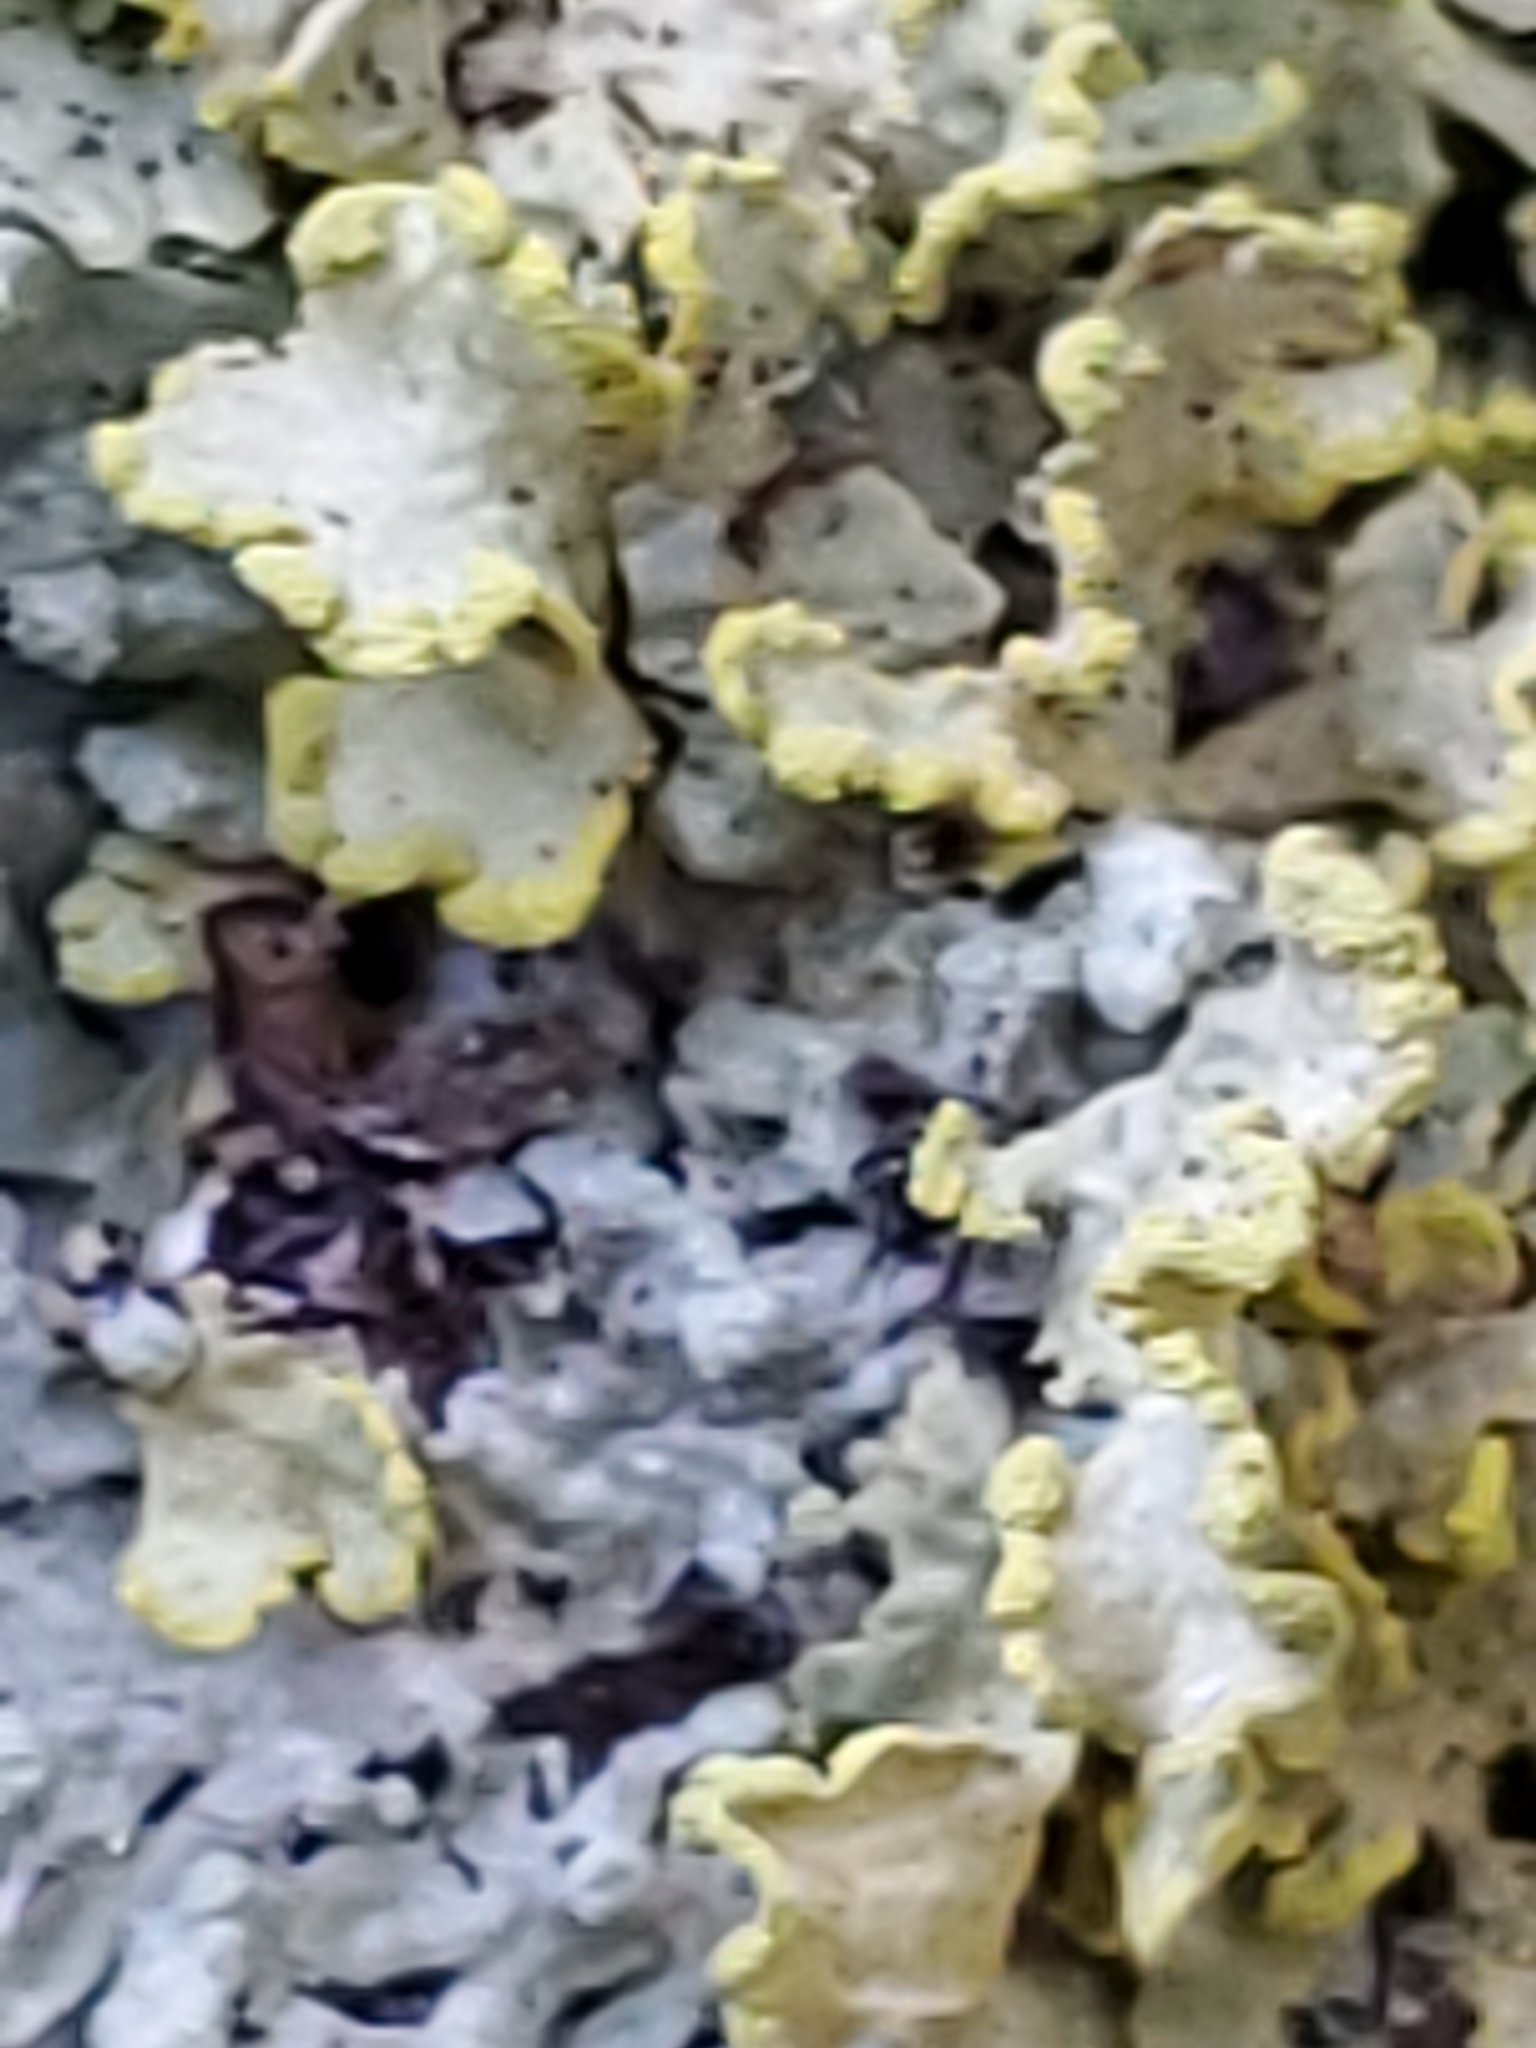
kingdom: Fungi
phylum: Ascomycota
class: Lecanoromycetes
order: Lecanorales
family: Parmeliaceae
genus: Vulpicida
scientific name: Vulpicida pinastri
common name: Powdered sunshine lichen
